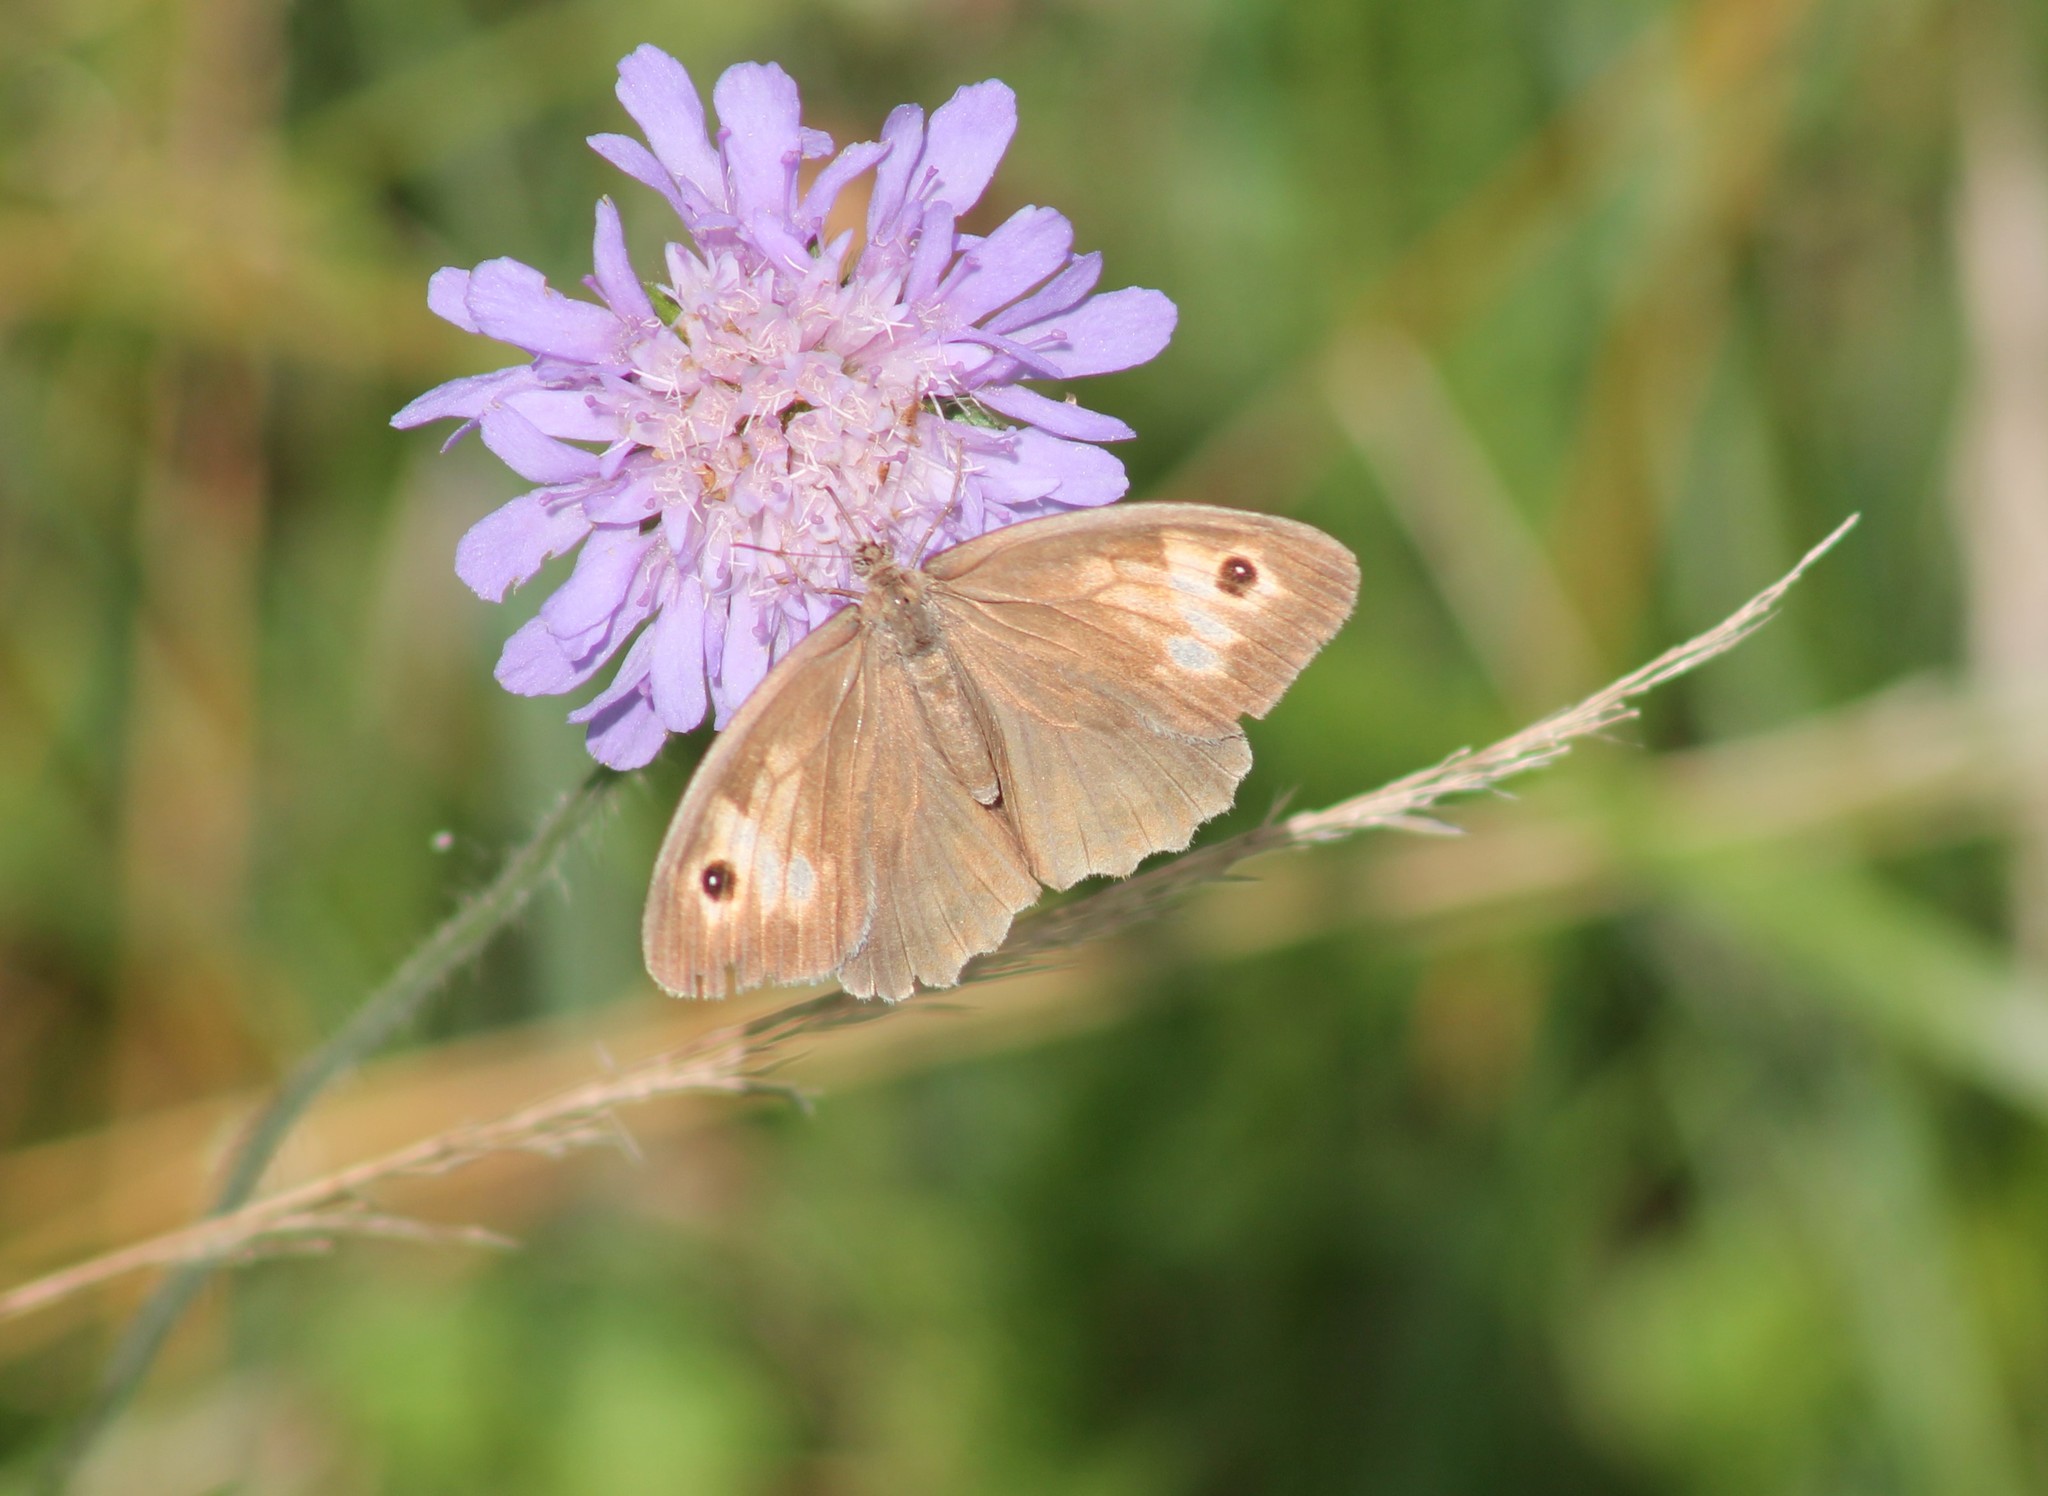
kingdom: Animalia
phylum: Arthropoda
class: Insecta
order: Lepidoptera
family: Nymphalidae
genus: Maniola
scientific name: Maniola jurtina
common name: Meadow brown
